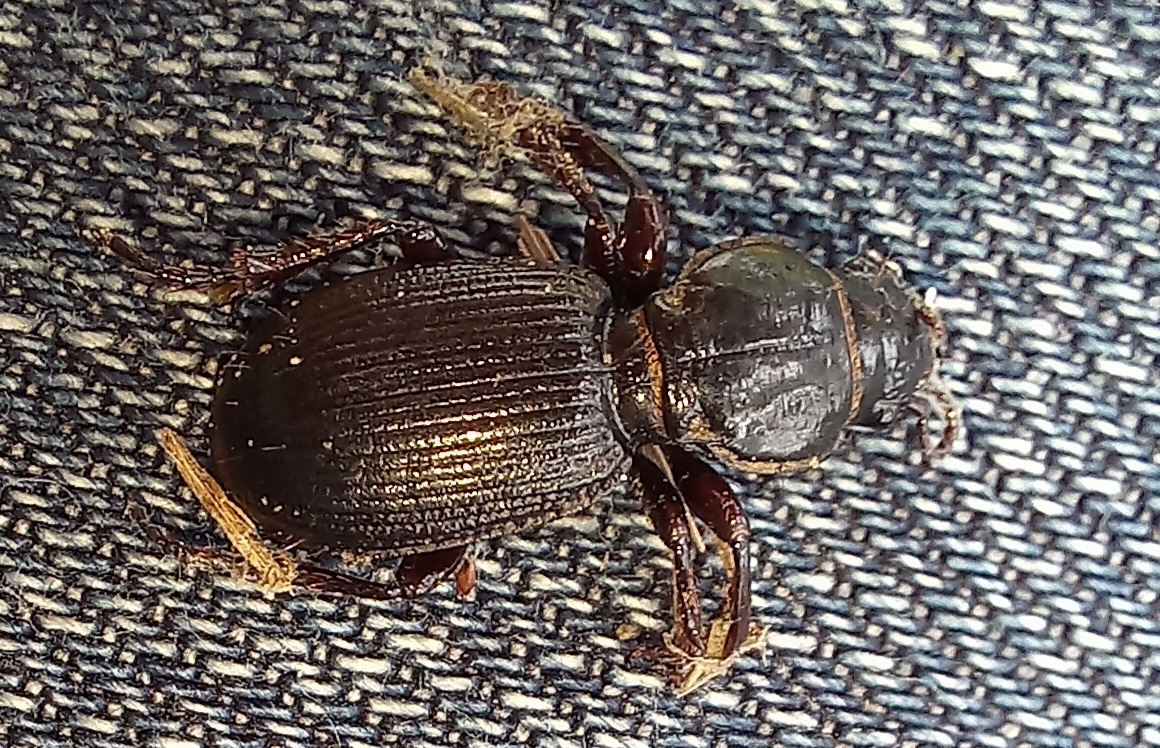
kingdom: Animalia
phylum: Arthropoda
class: Insecta
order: Coleoptera
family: Carabidae
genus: Mecodema
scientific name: Mecodema moniliferum
